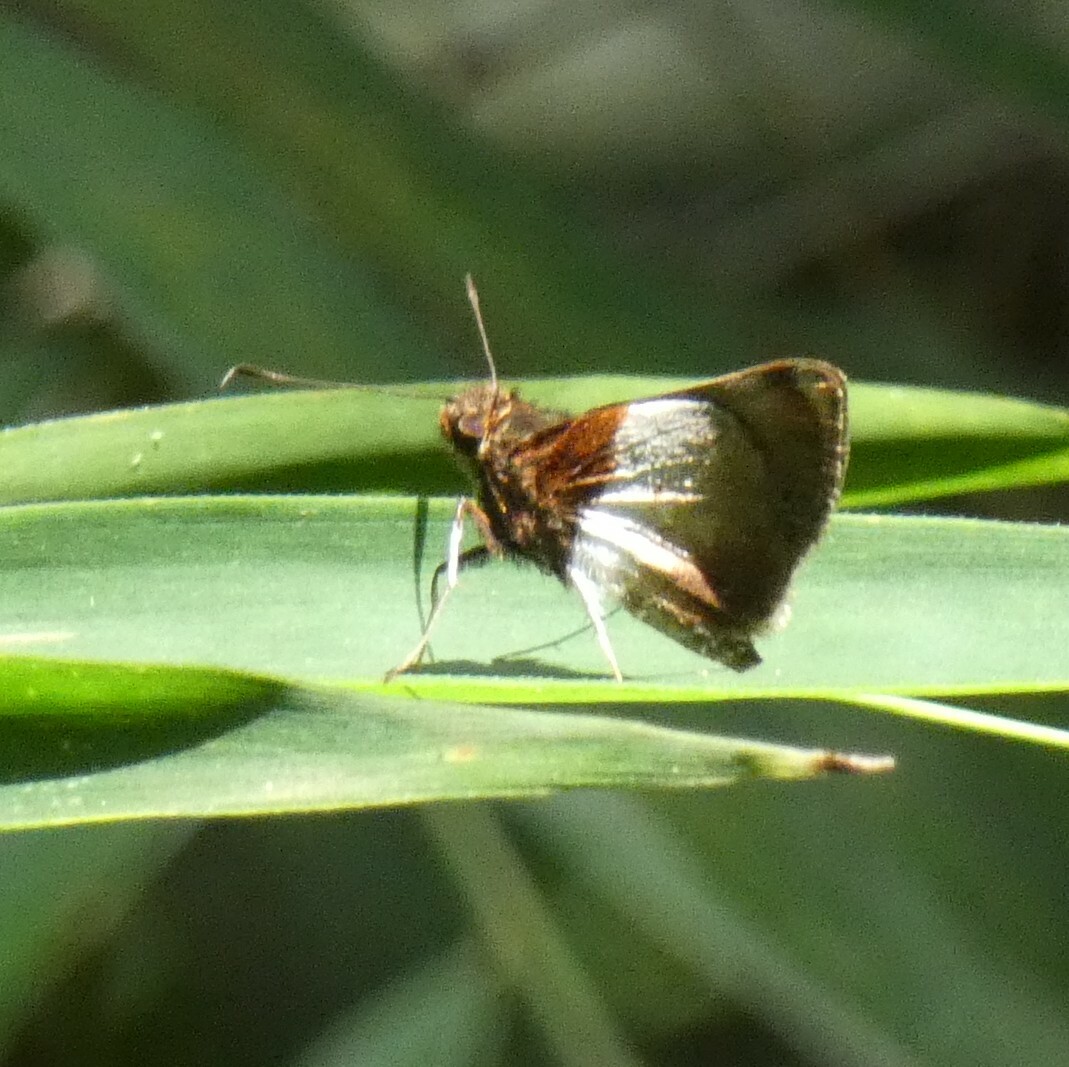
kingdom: Animalia
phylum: Arthropoda
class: Insecta
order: Lepidoptera
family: Hesperiidae
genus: Moeris
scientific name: Moeris remus
